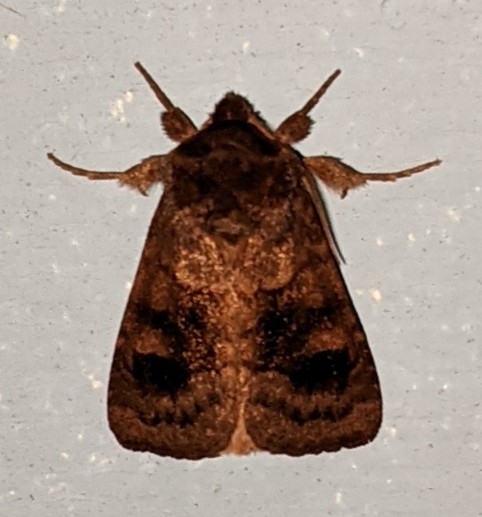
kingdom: Animalia
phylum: Arthropoda
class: Insecta
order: Lepidoptera
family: Noctuidae
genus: Nephelodes
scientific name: Nephelodes minians
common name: Bronzed cutworm
